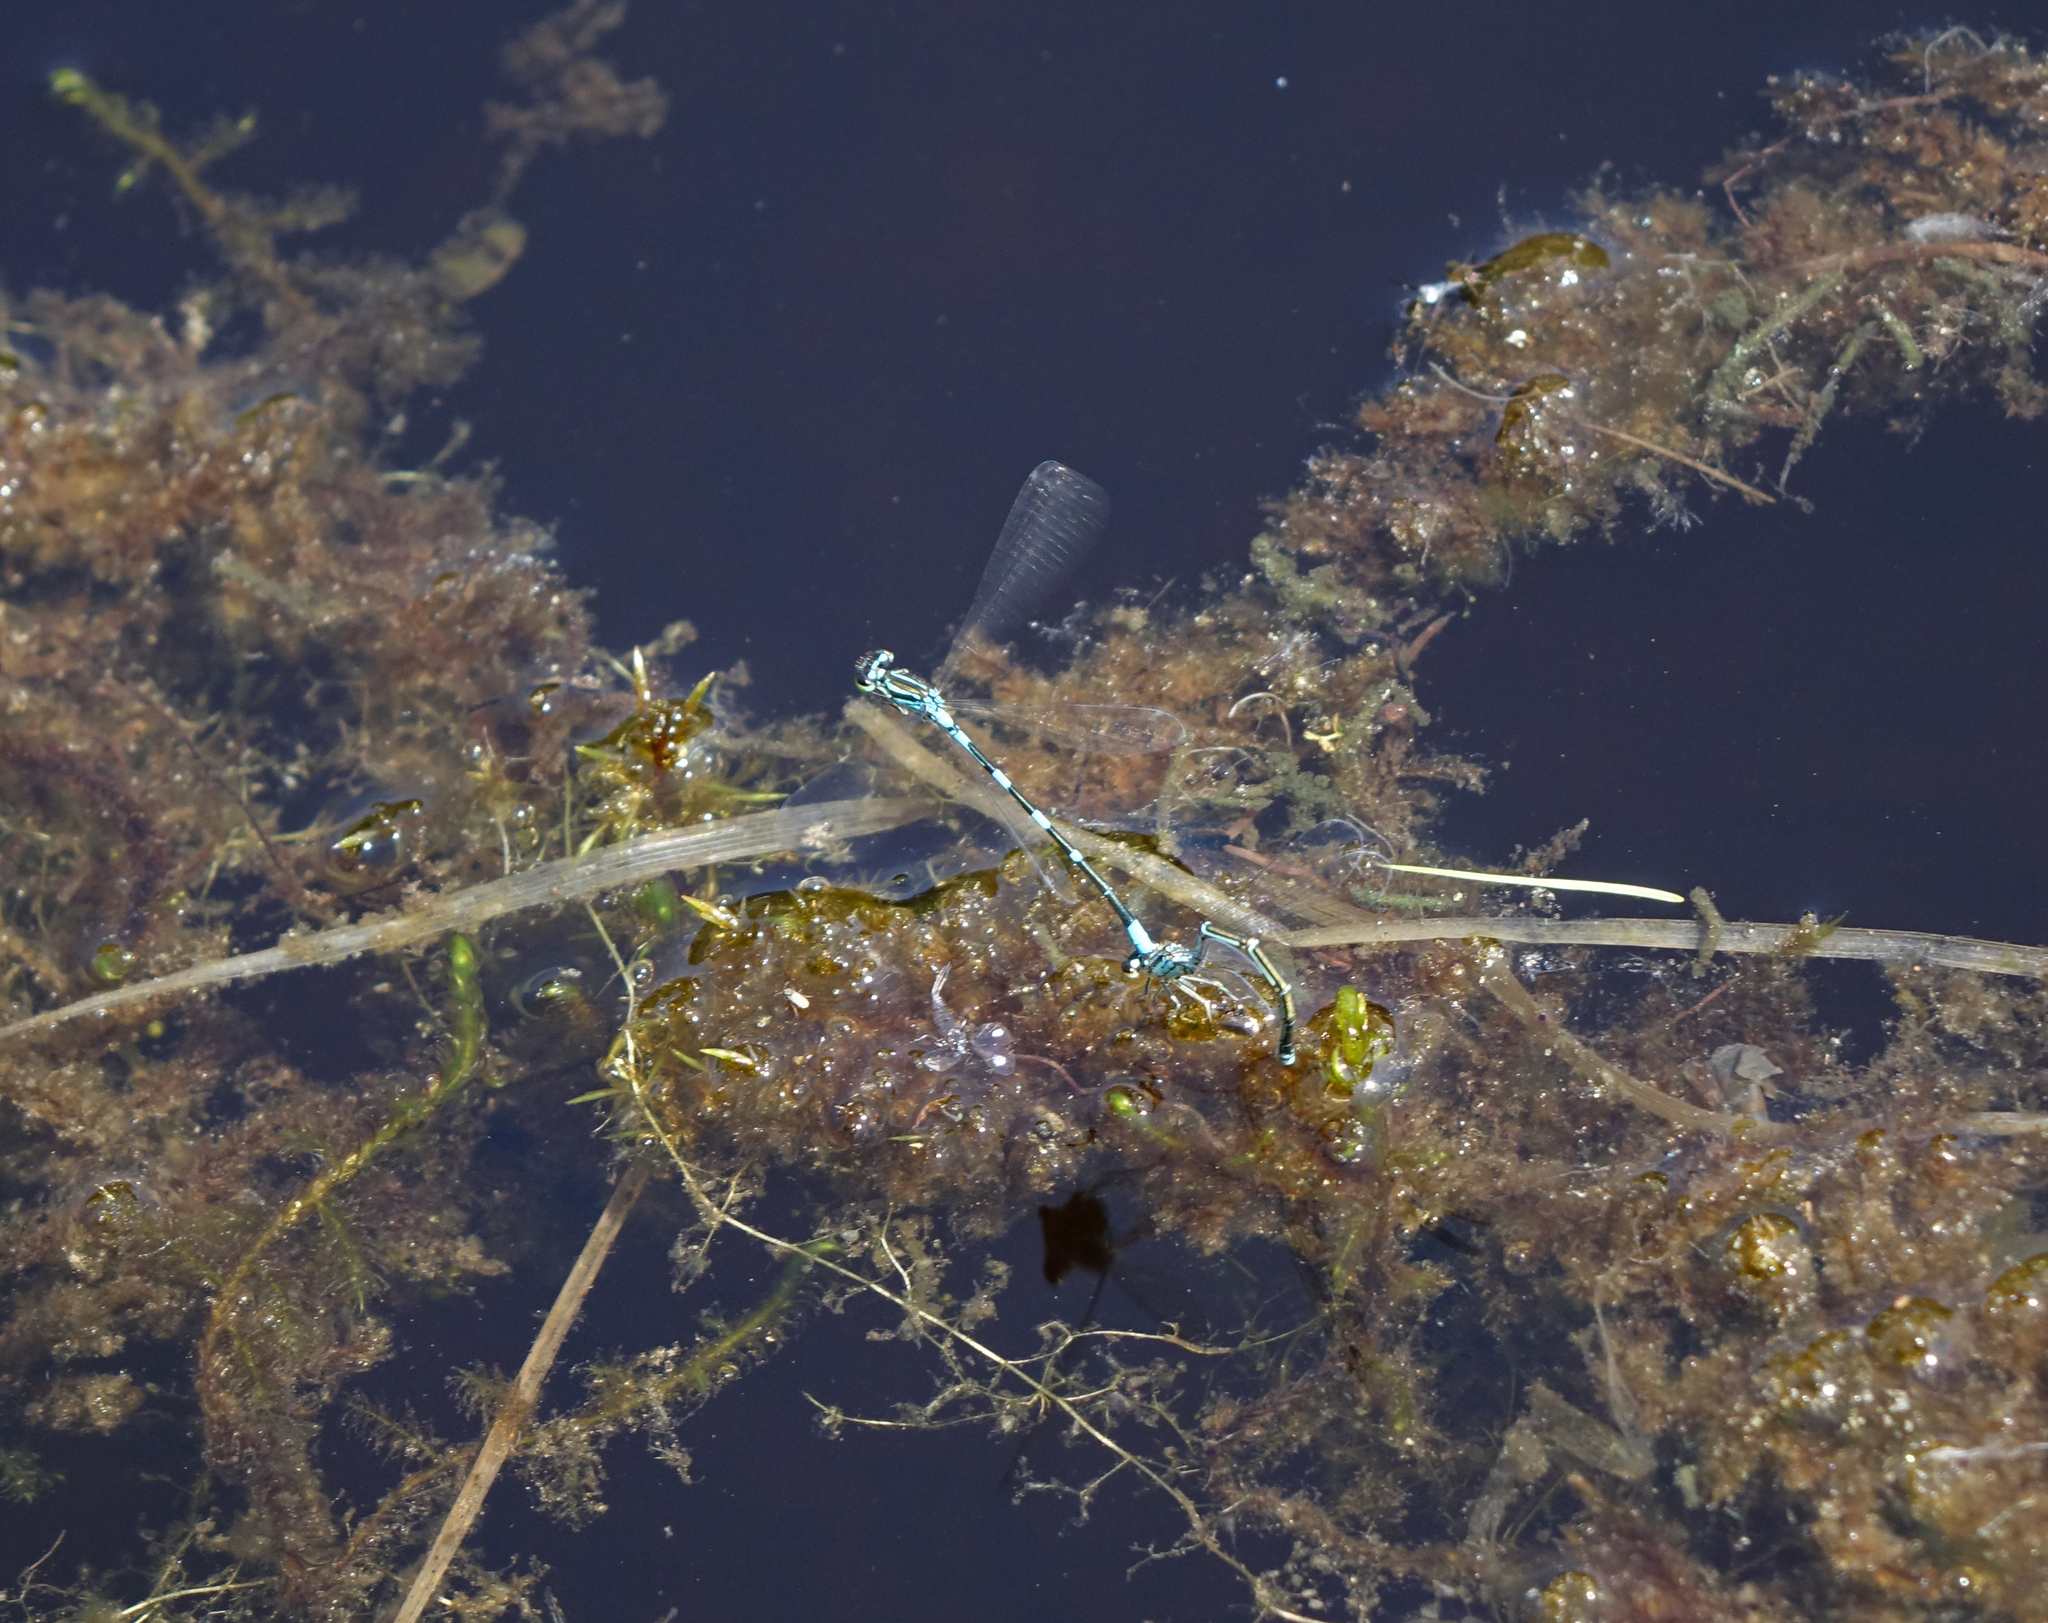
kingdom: Animalia
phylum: Arthropoda
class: Insecta
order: Odonata
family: Coenagrionidae
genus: Coenagrion
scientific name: Coenagrion johanssoni
